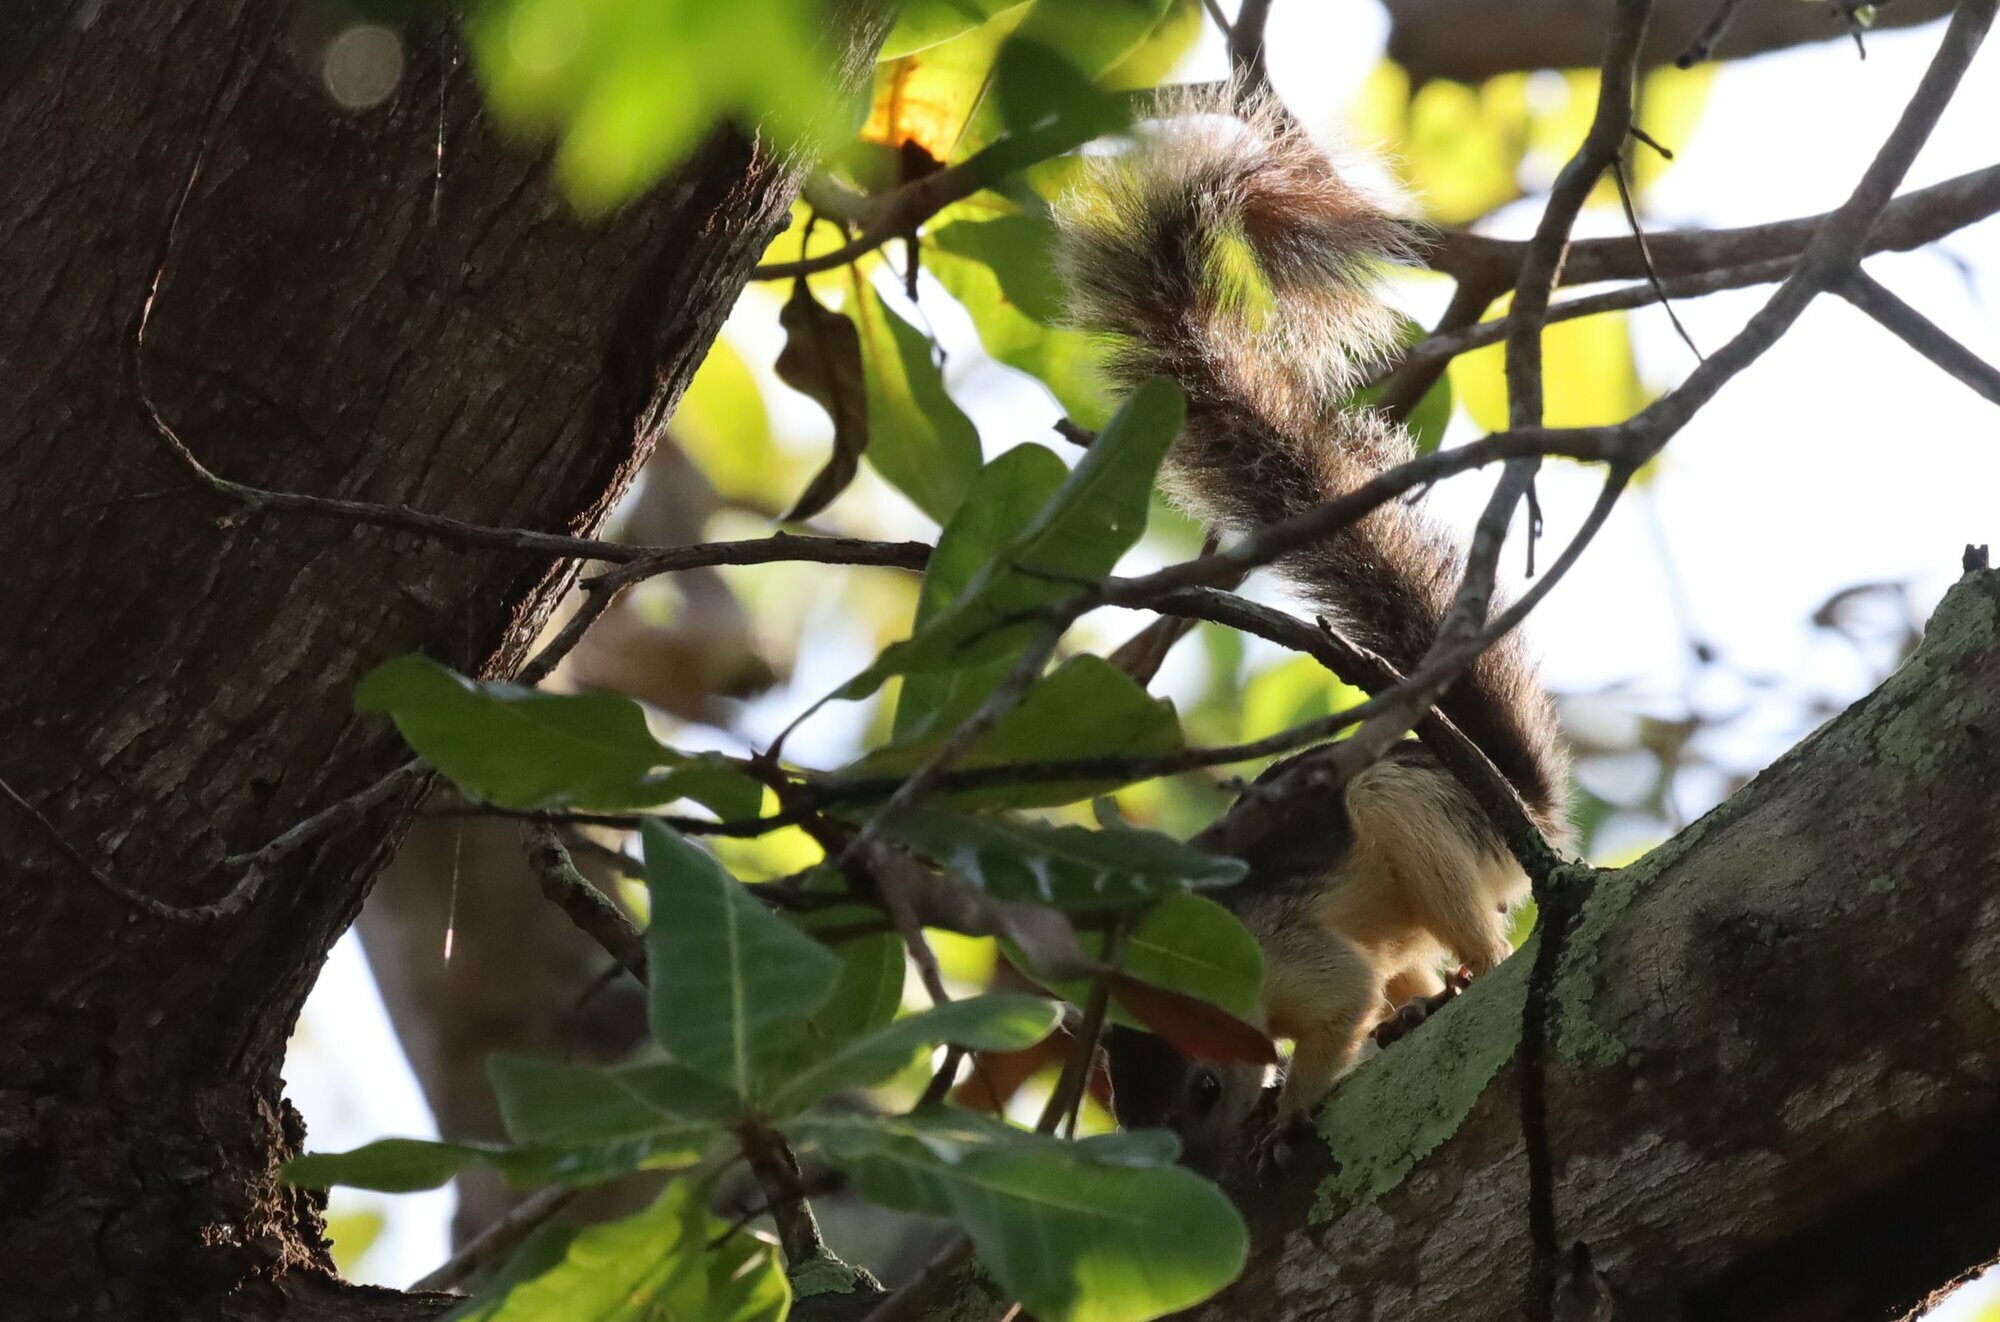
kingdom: Animalia
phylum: Chordata
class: Mammalia
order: Rodentia
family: Sciuridae
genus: Sciurus
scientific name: Sciurus variegatoides
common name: Variegated squirrel
